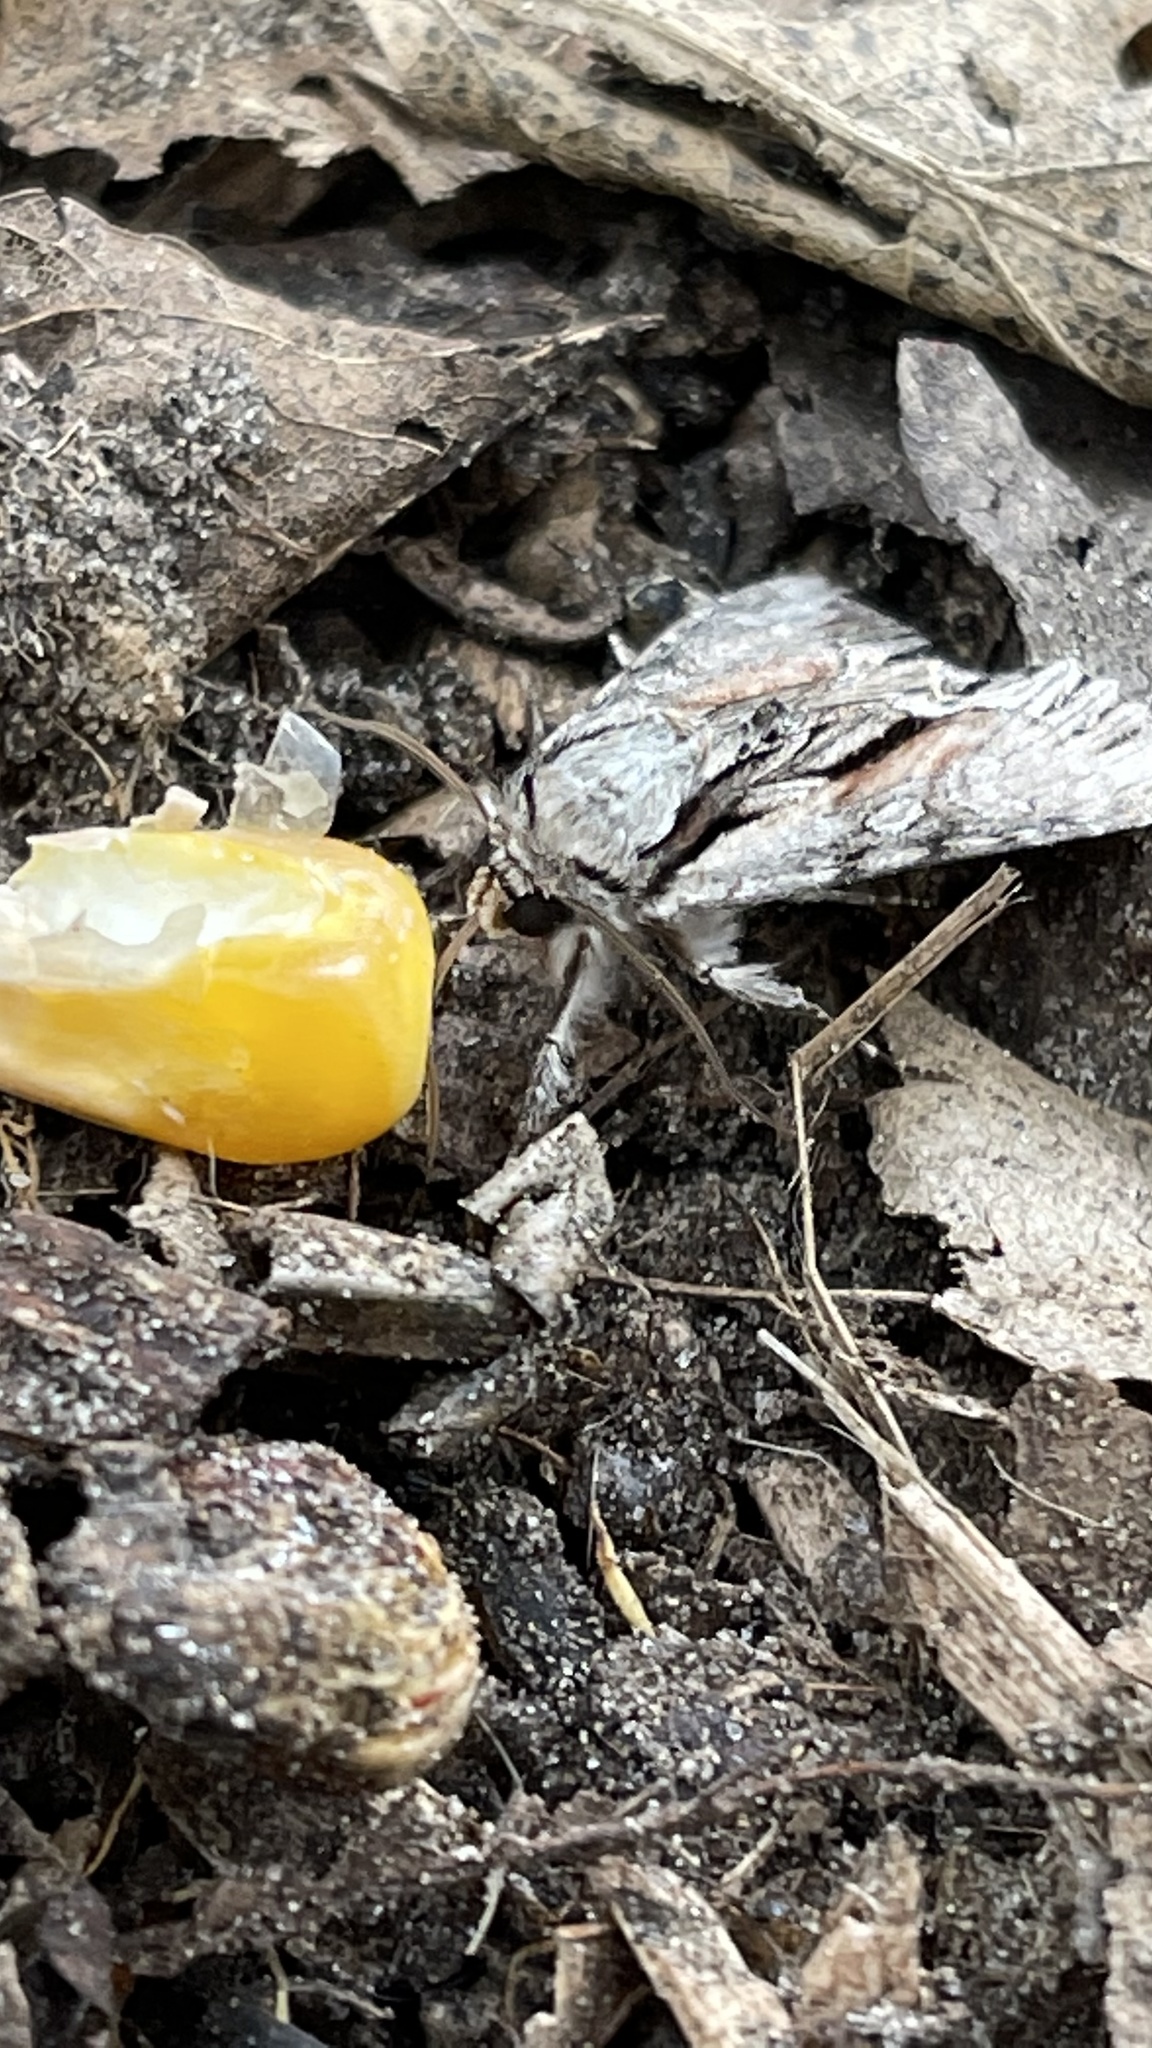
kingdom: Animalia
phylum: Arthropoda
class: Insecta
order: Lepidoptera
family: Noctuidae
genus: Hyppa
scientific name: Hyppa xylinoides
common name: Common hyppa moth
